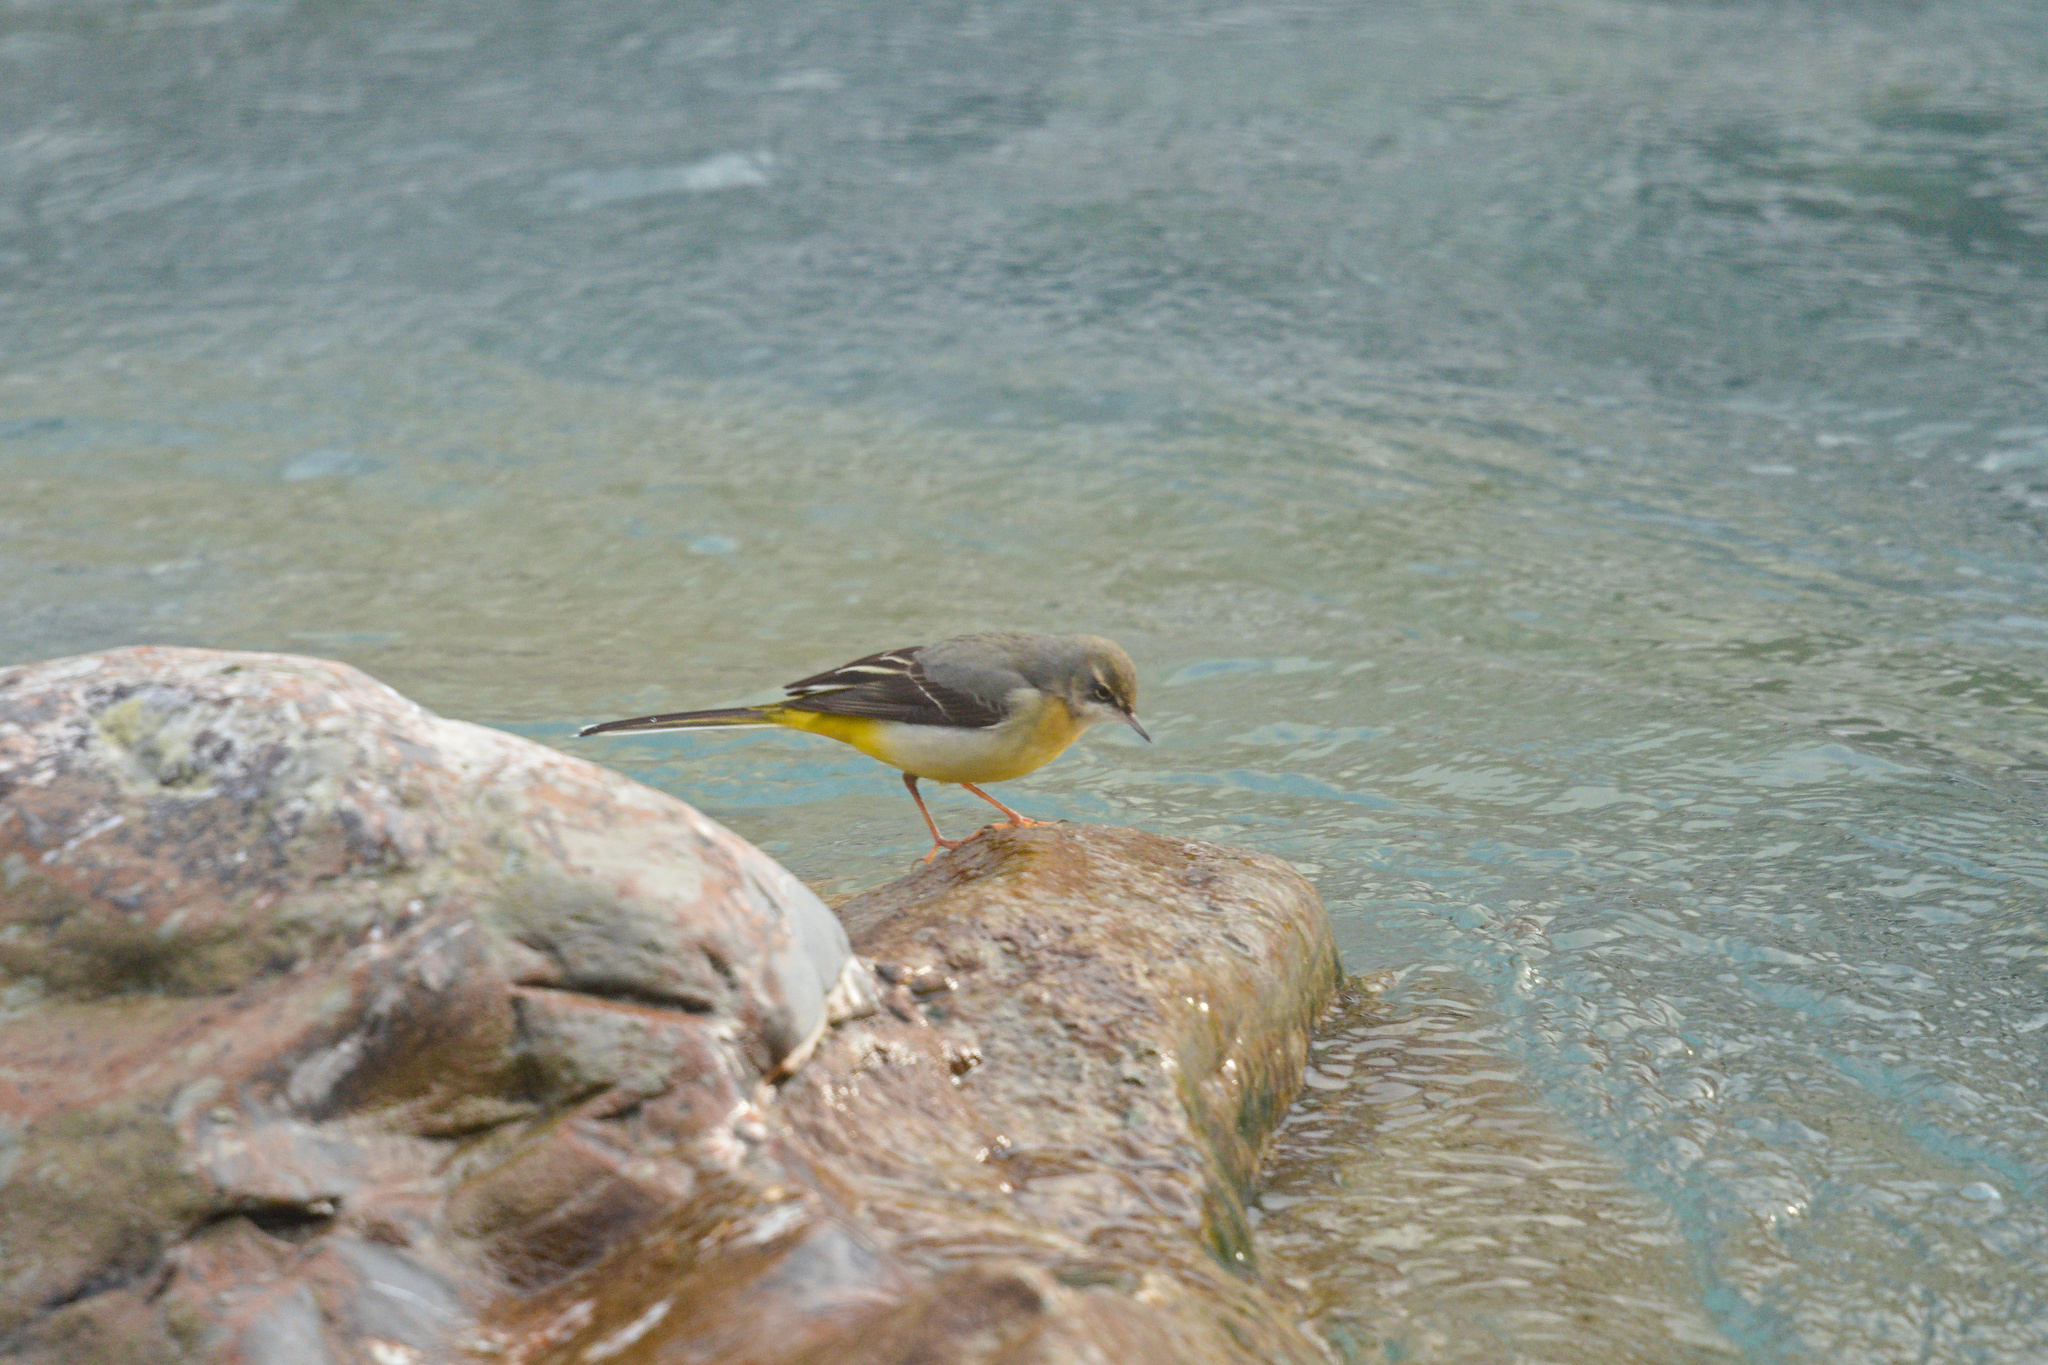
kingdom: Animalia
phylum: Chordata
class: Aves
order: Passeriformes
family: Motacillidae
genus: Motacilla
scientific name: Motacilla cinerea
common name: Grey wagtail
